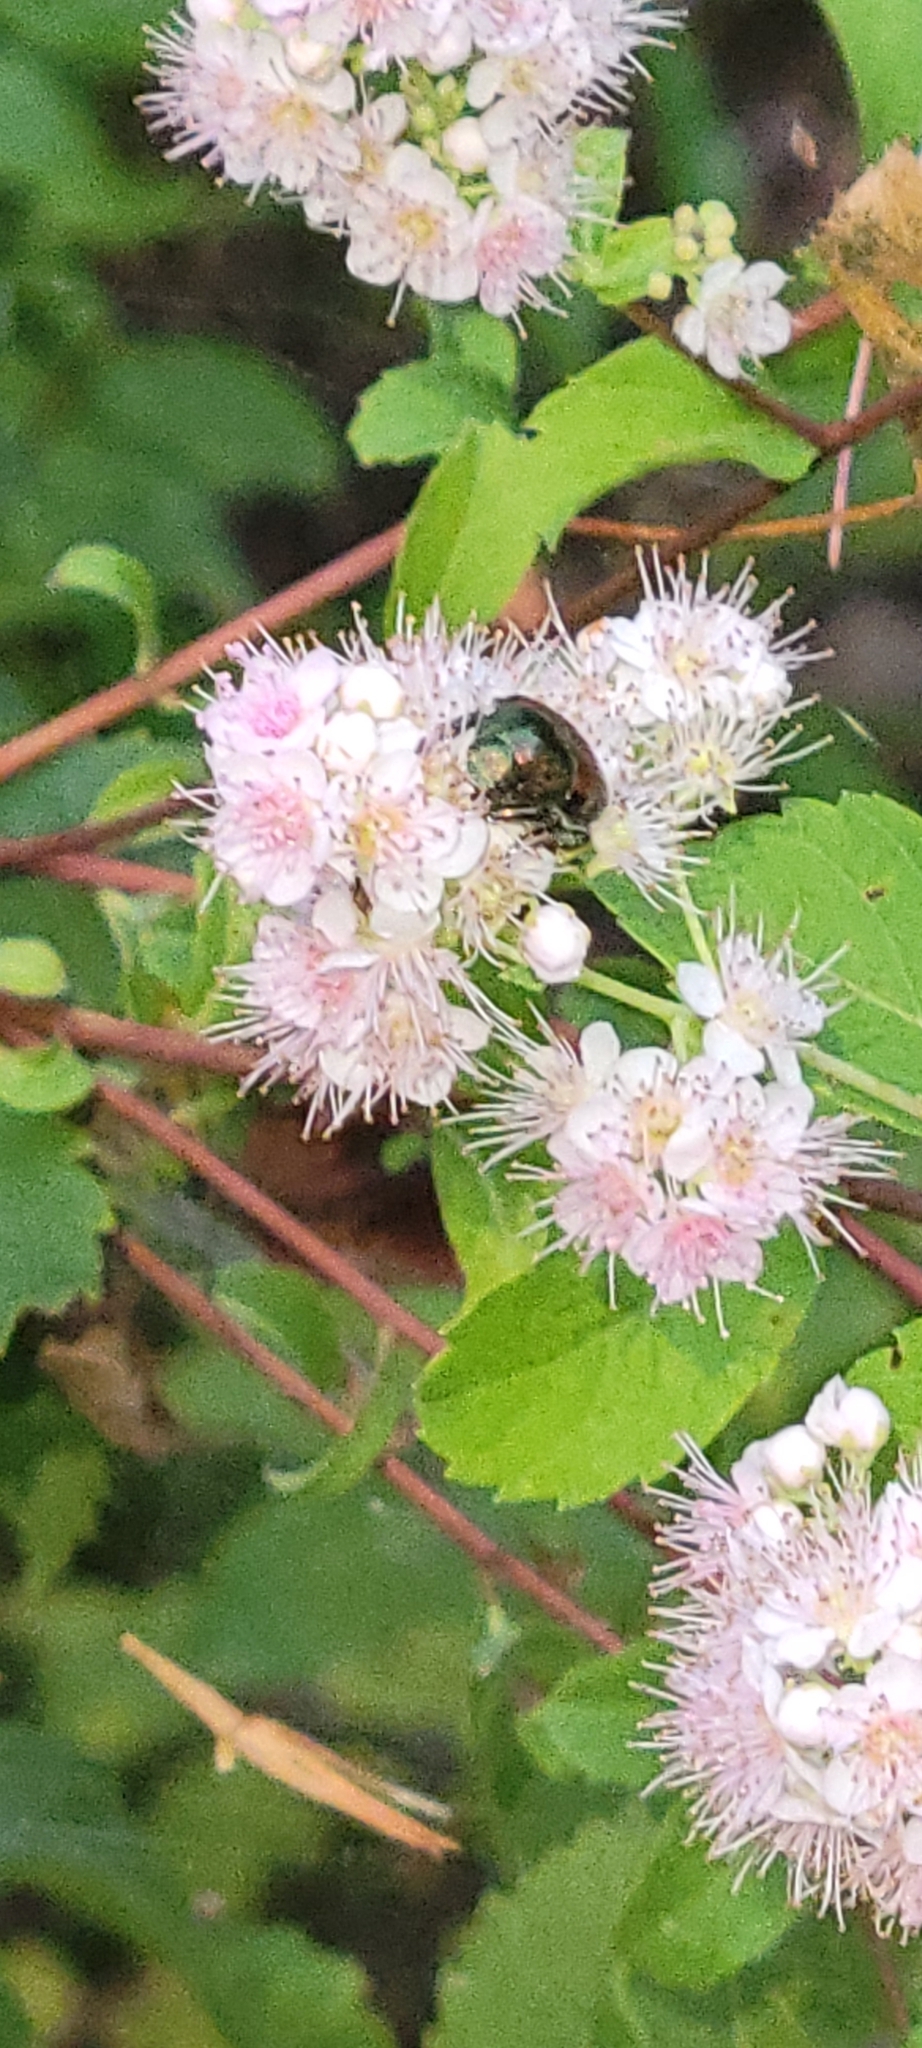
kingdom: Plantae
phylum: Tracheophyta
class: Magnoliopsida
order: Rosales
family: Rosaceae
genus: Spiraea
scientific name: Spiraea alba
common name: Pale bridewort
